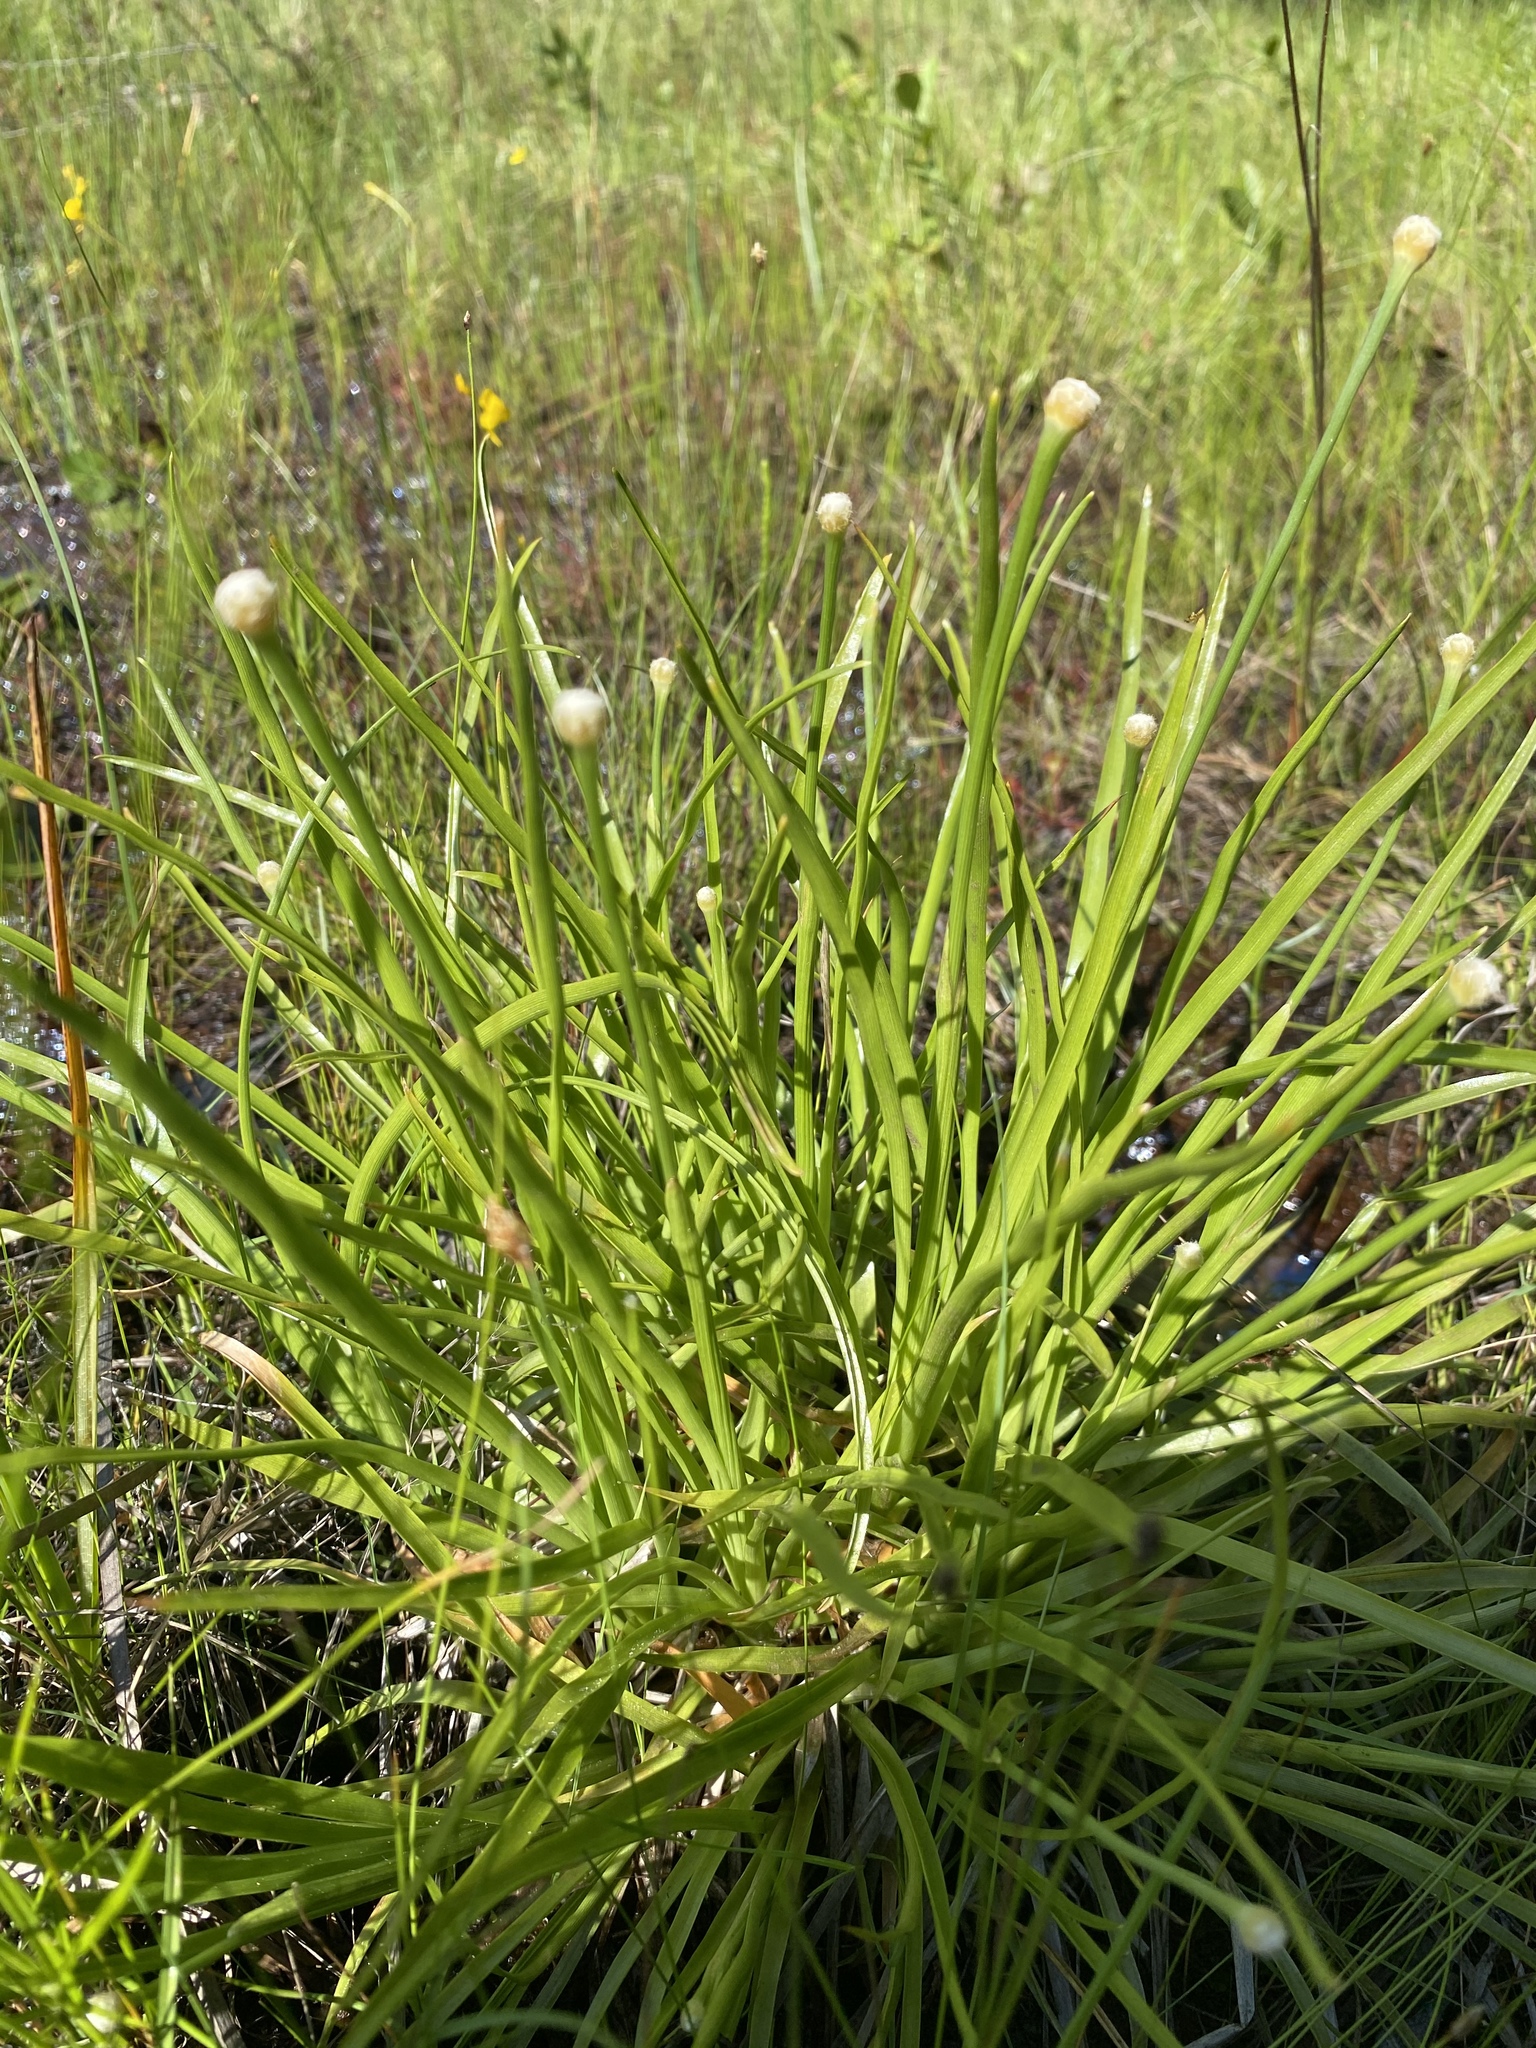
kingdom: Plantae
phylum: Tracheophyta
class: Liliopsida
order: Poales
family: Eriocaulaceae
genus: Eriocaulon
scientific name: Eriocaulon decangulare
